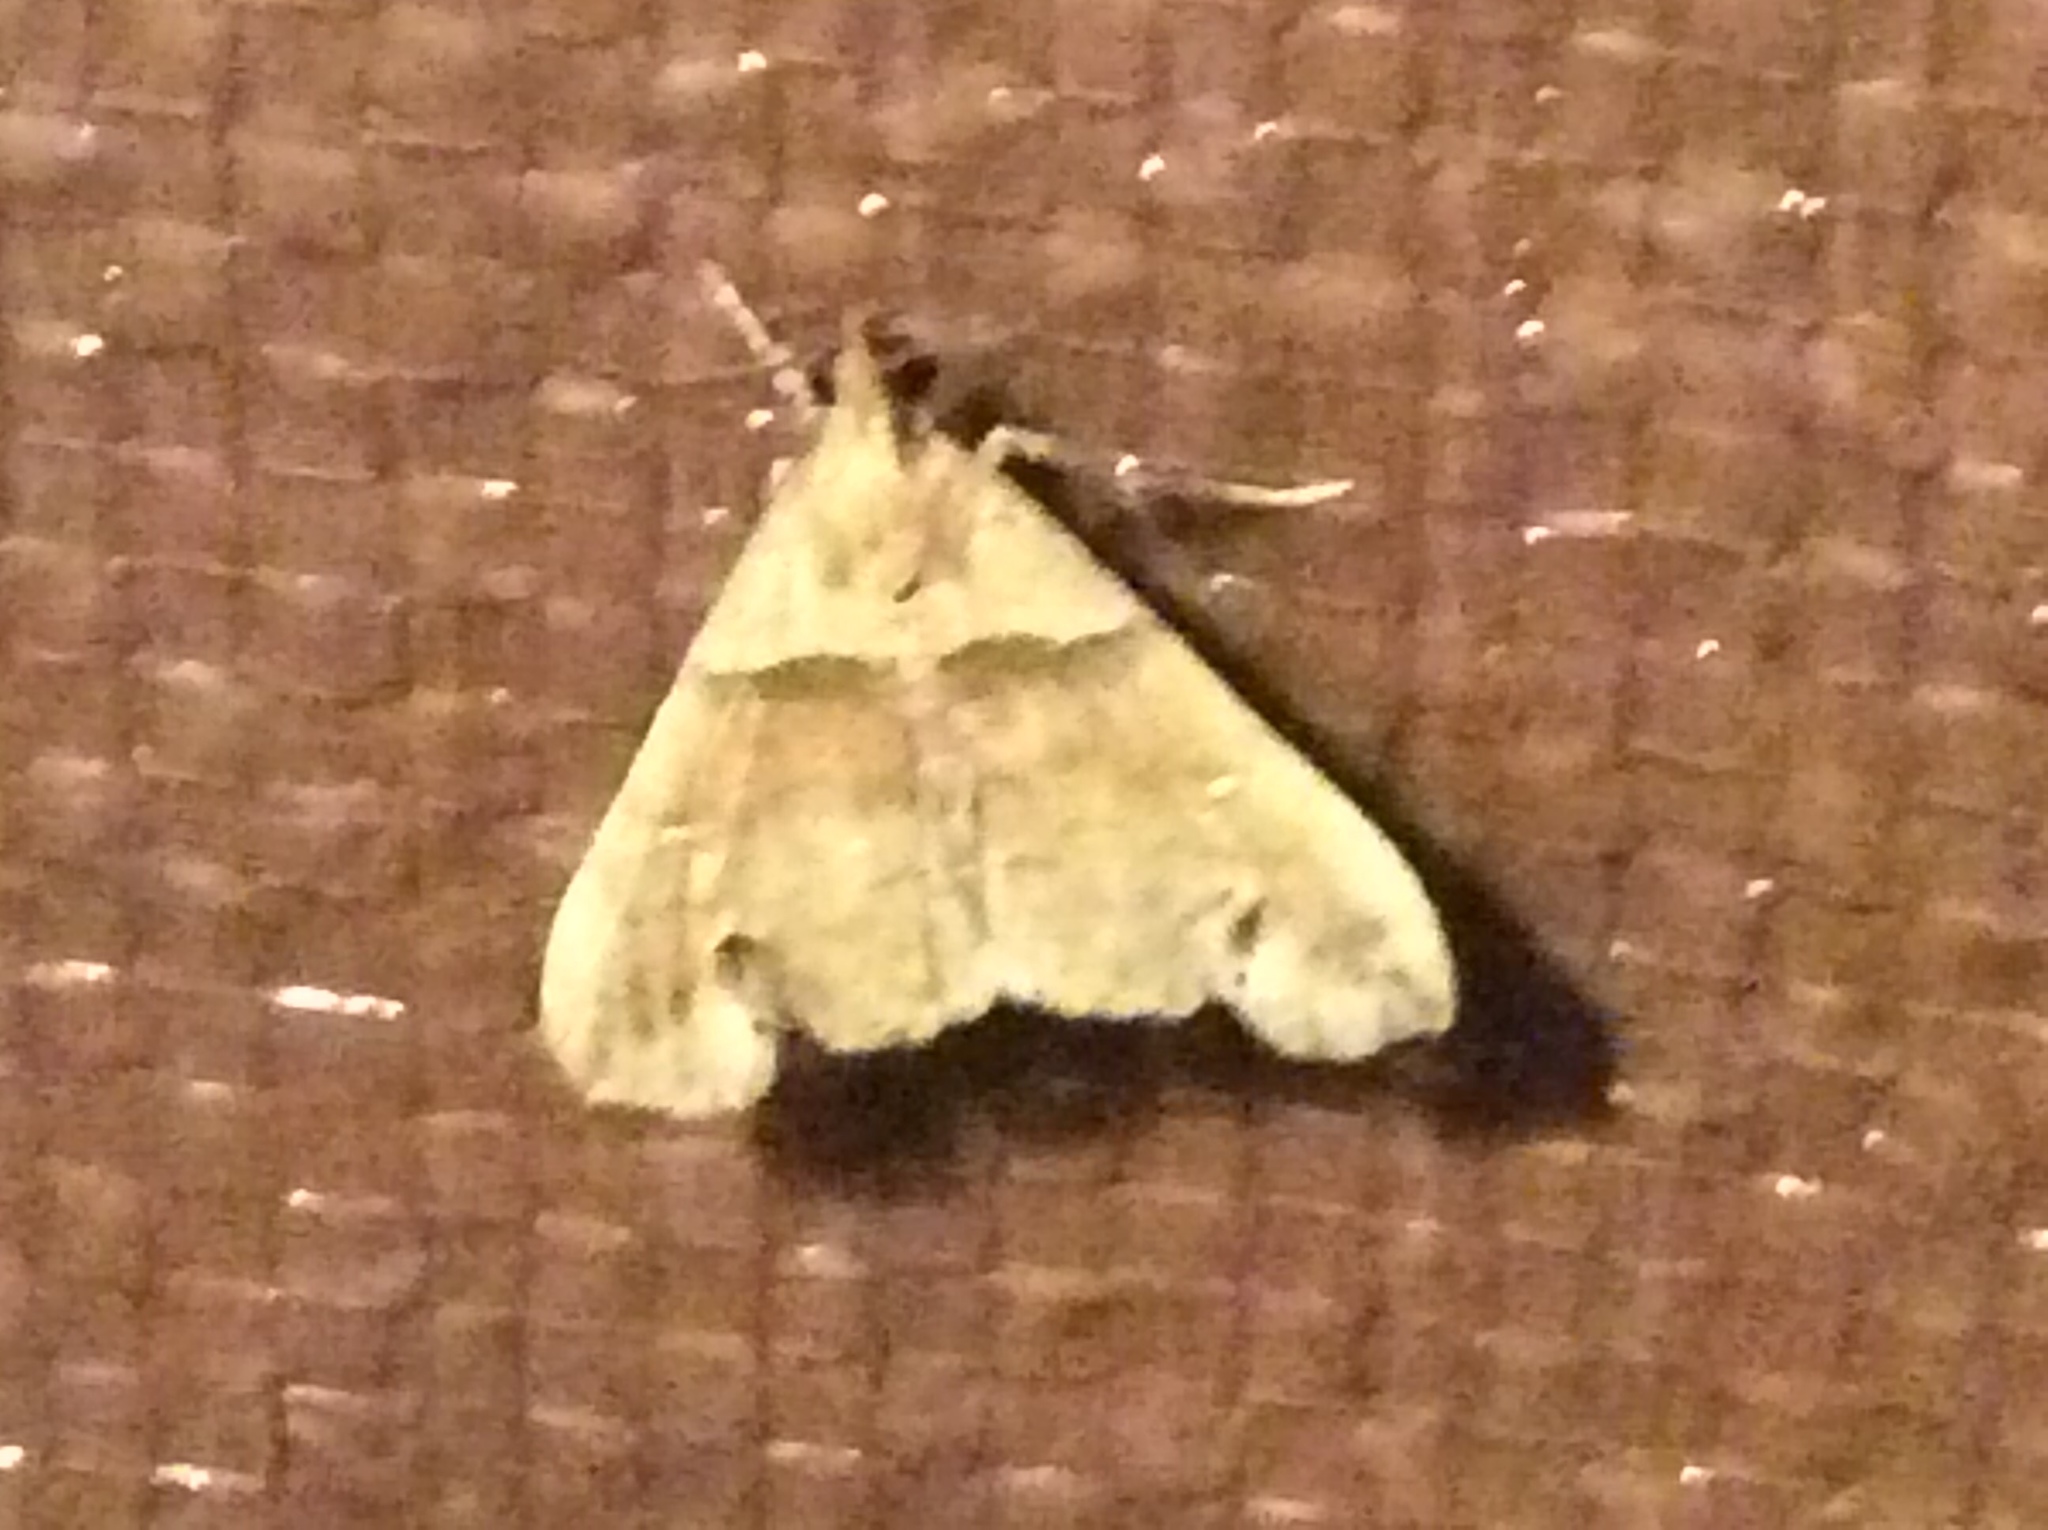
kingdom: Animalia
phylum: Arthropoda
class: Insecta
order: Lepidoptera
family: Erebidae
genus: Lascoria
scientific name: Lascoria ambigualis
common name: Ambiguous moth
